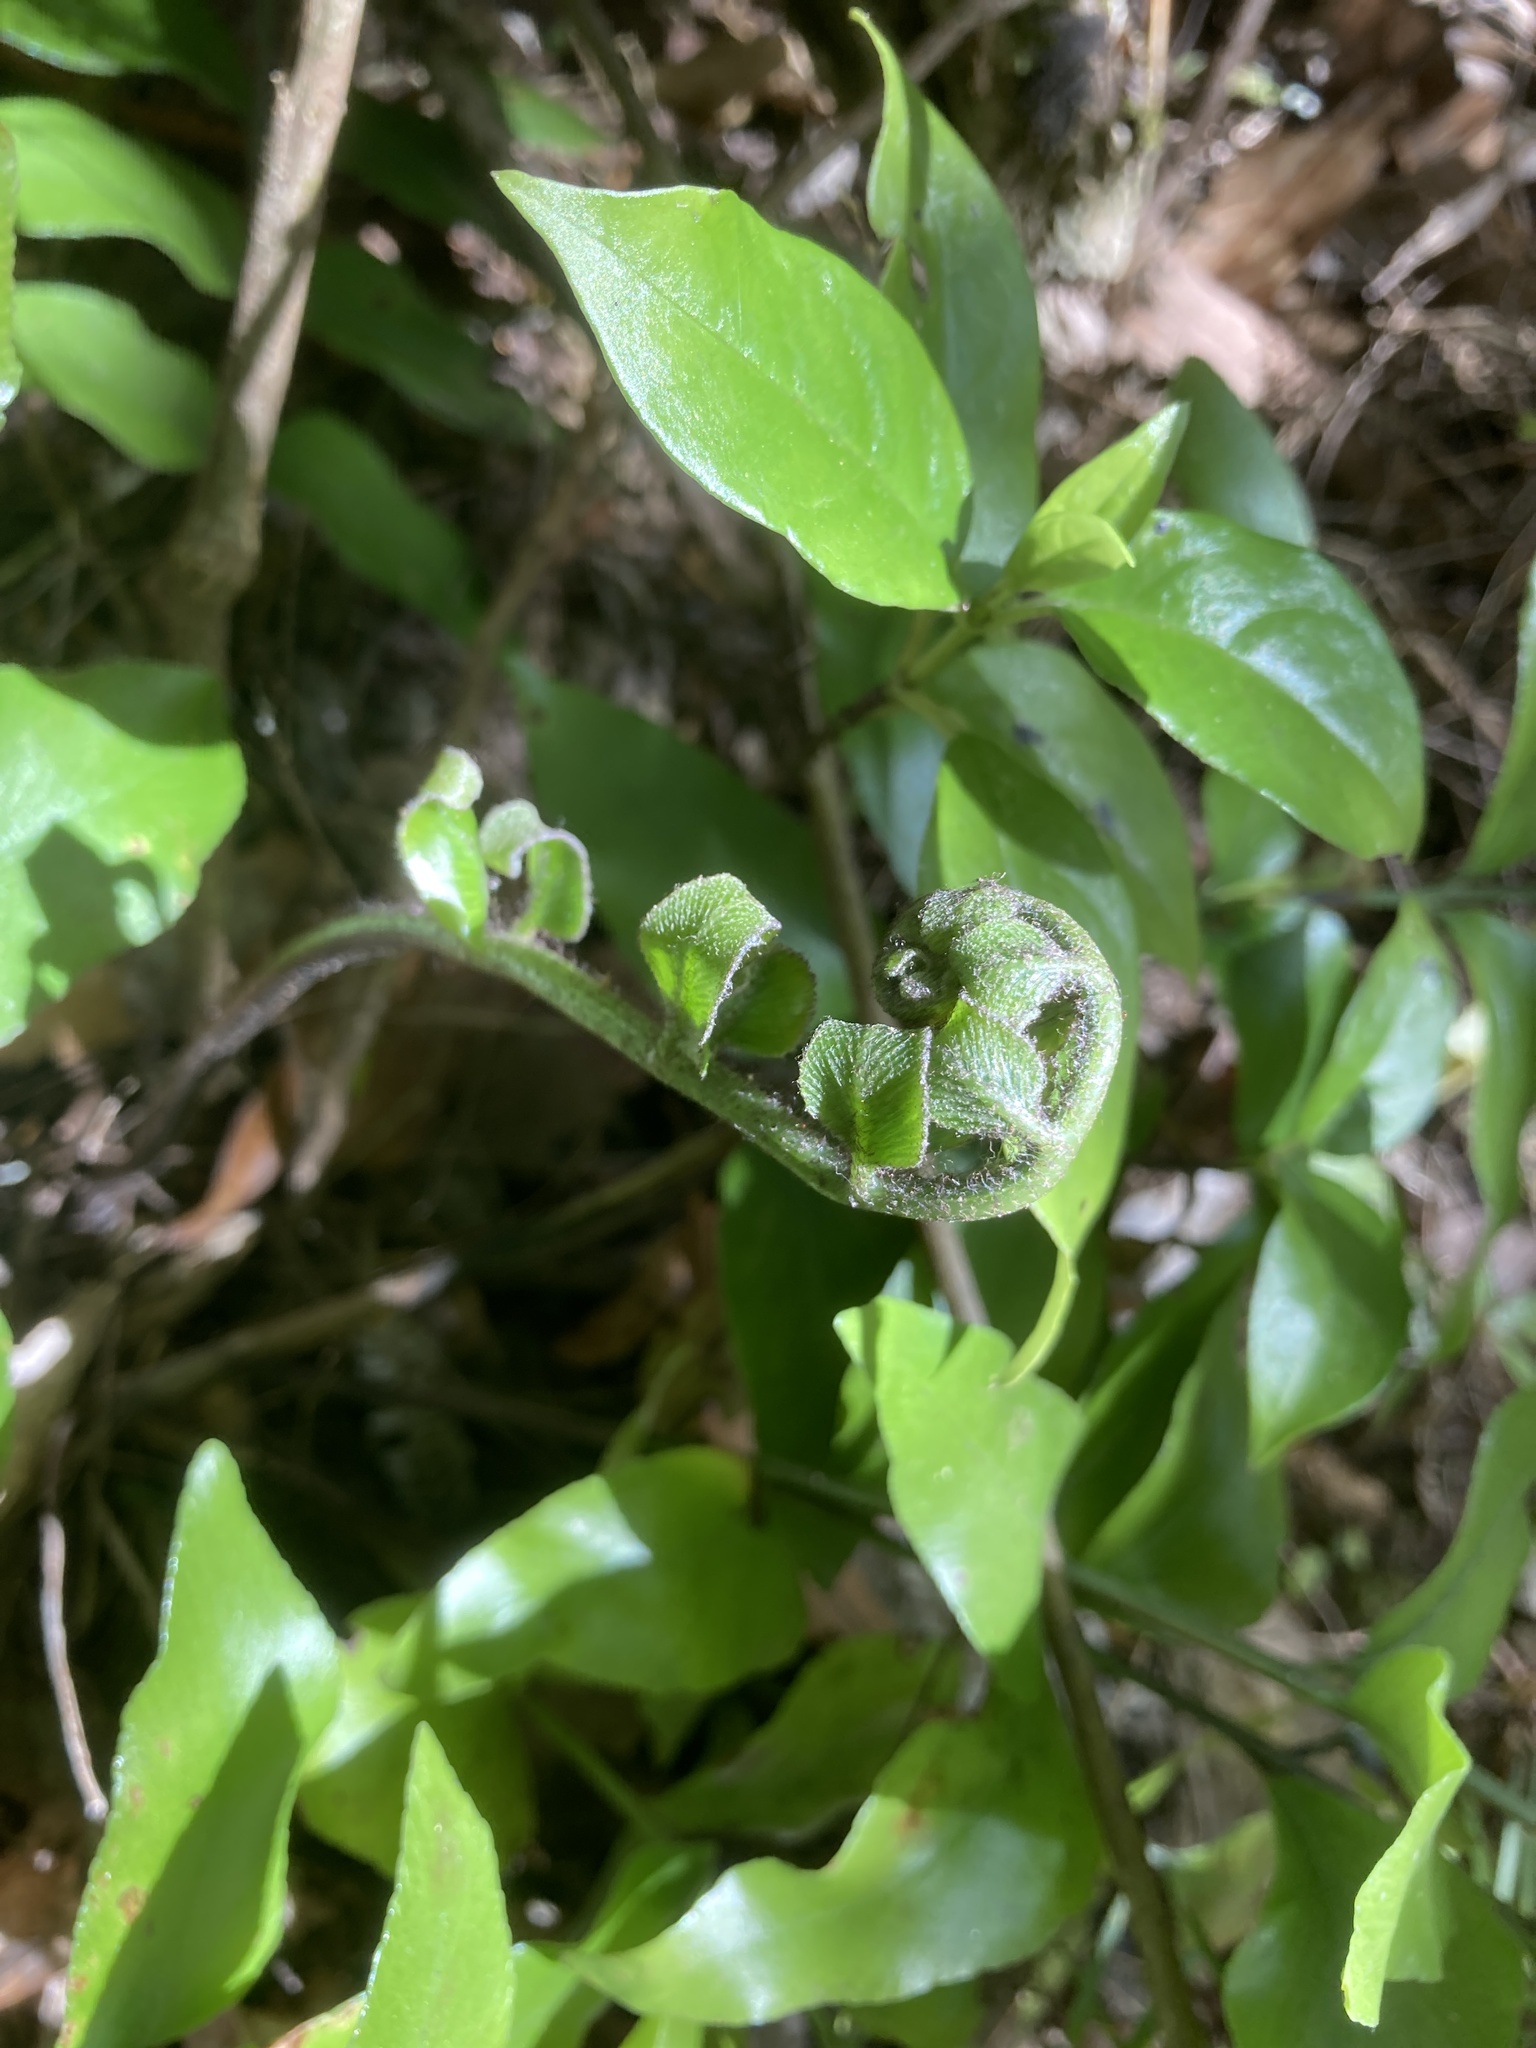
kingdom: Plantae
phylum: Tracheophyta
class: Polypodiopsida
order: Polypodiales
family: Aspleniaceae
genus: Asplenium
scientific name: Asplenium oblongifolium
